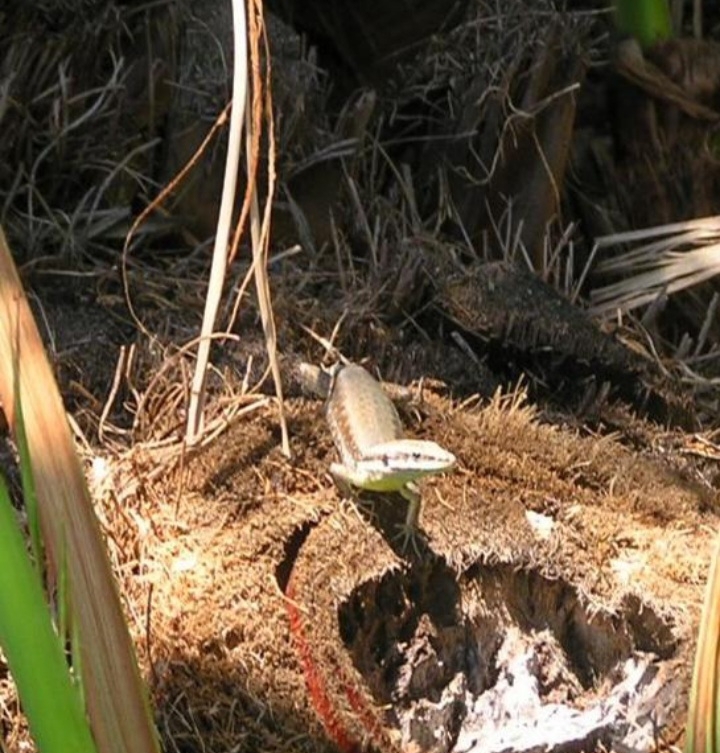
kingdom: Animalia
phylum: Chordata
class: Squamata
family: Lacertidae
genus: Phoenicolacerta
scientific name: Phoenicolacerta laevis
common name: Lebanon lizard
